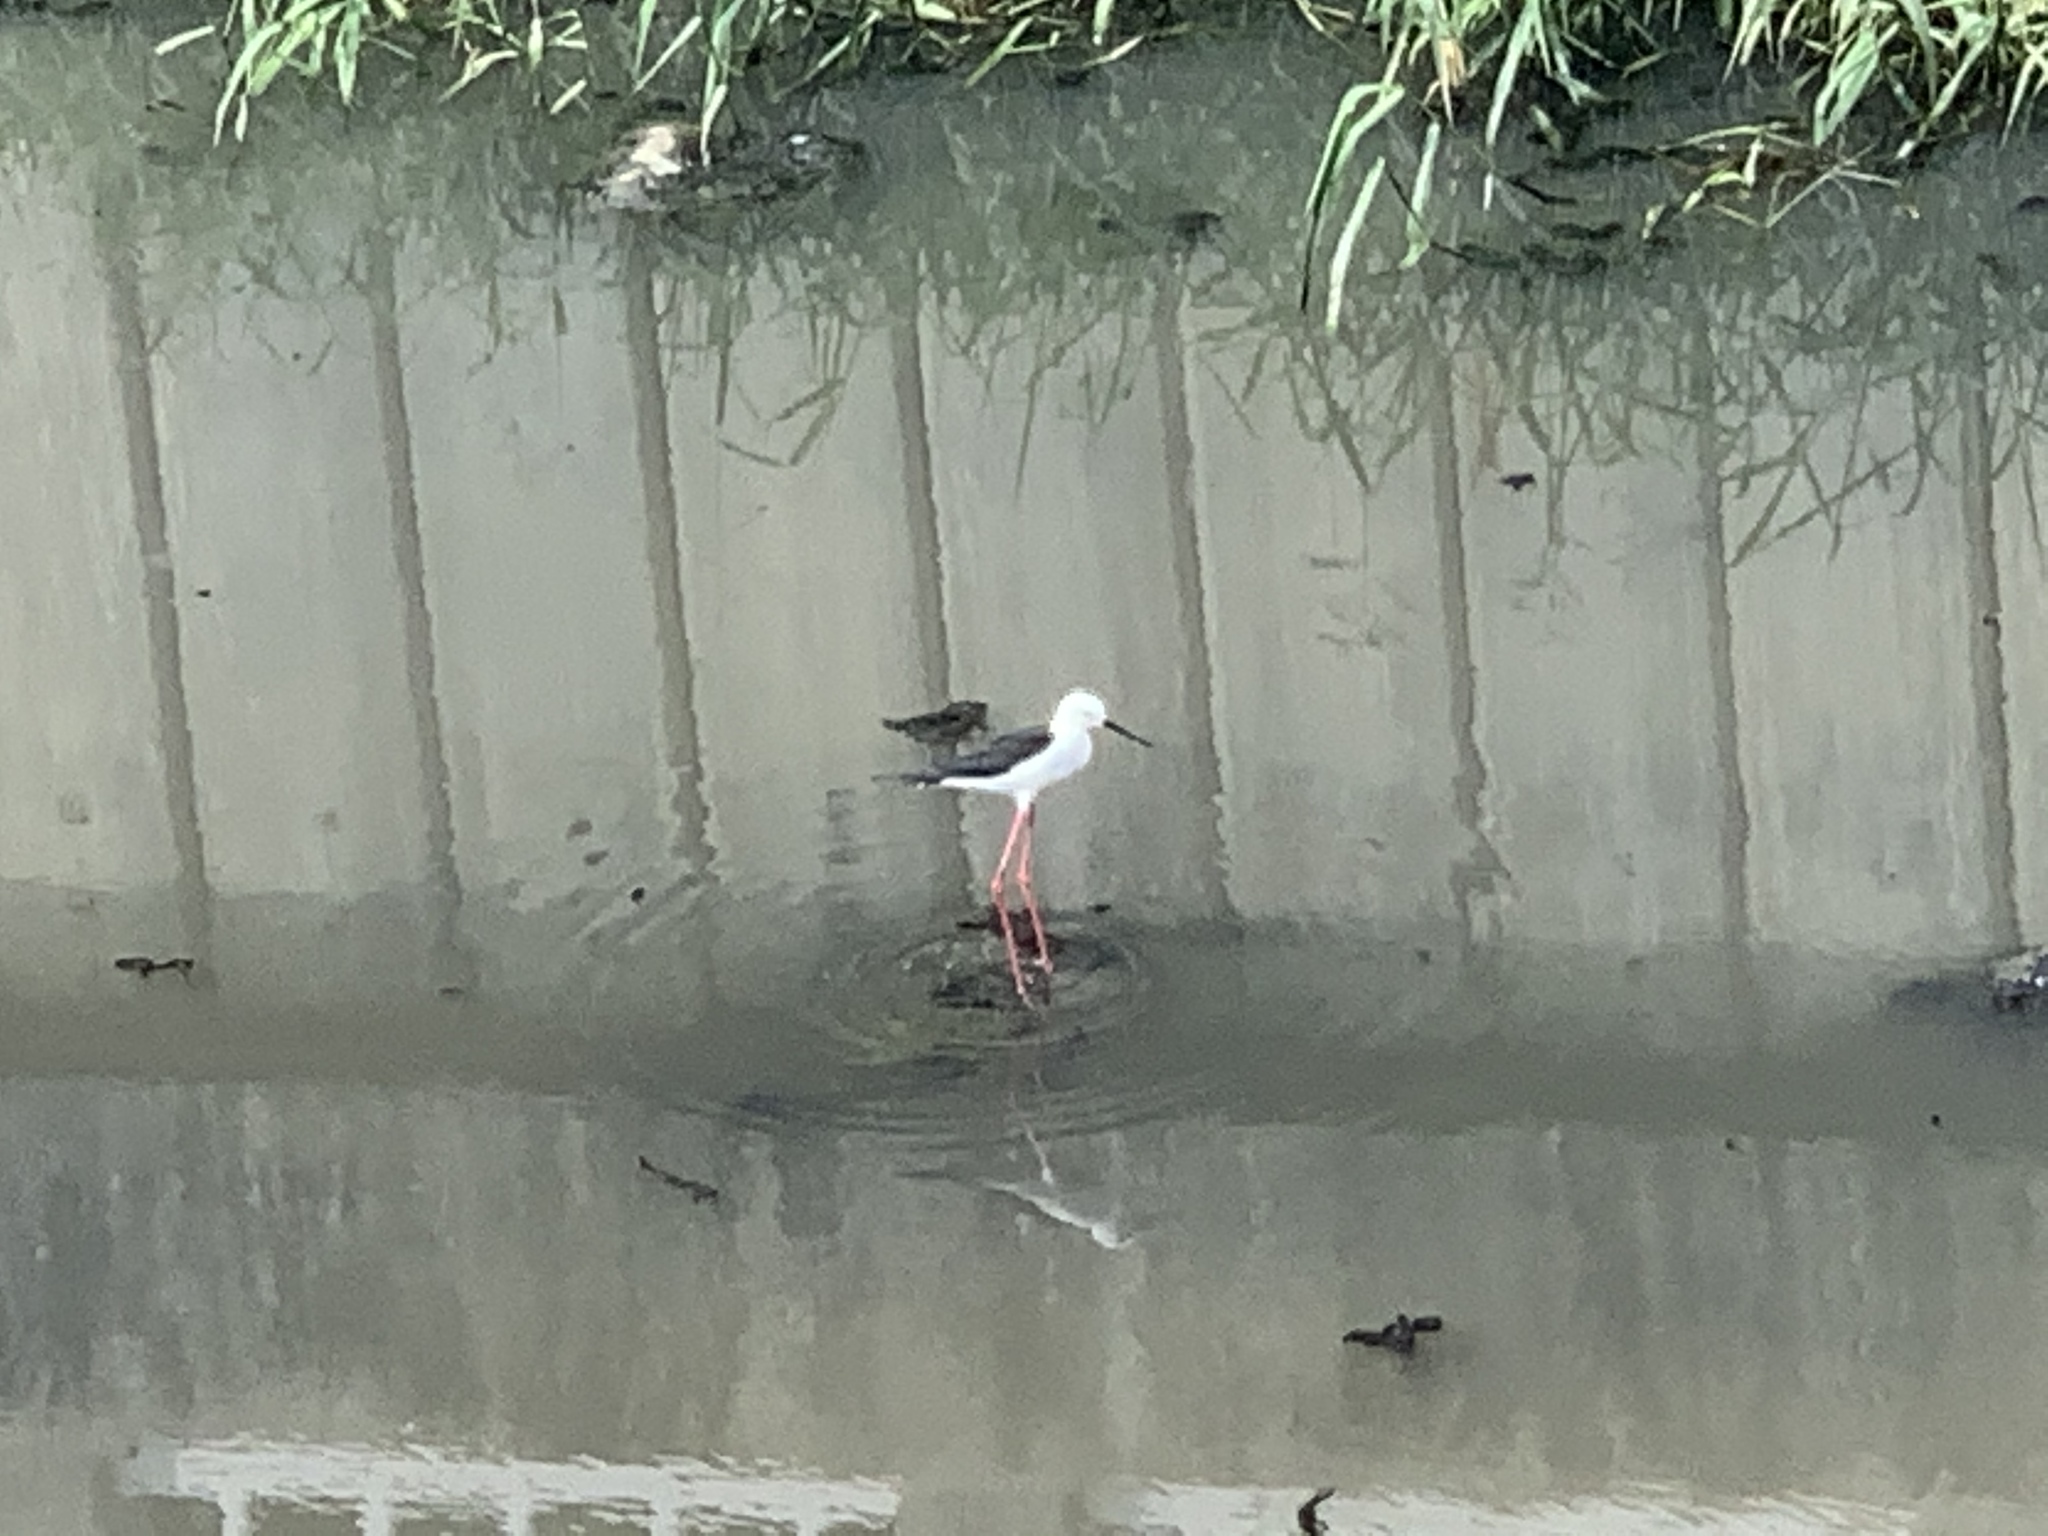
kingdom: Animalia
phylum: Chordata
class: Aves
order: Charadriiformes
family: Recurvirostridae
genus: Himantopus
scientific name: Himantopus himantopus
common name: Black-winged stilt
